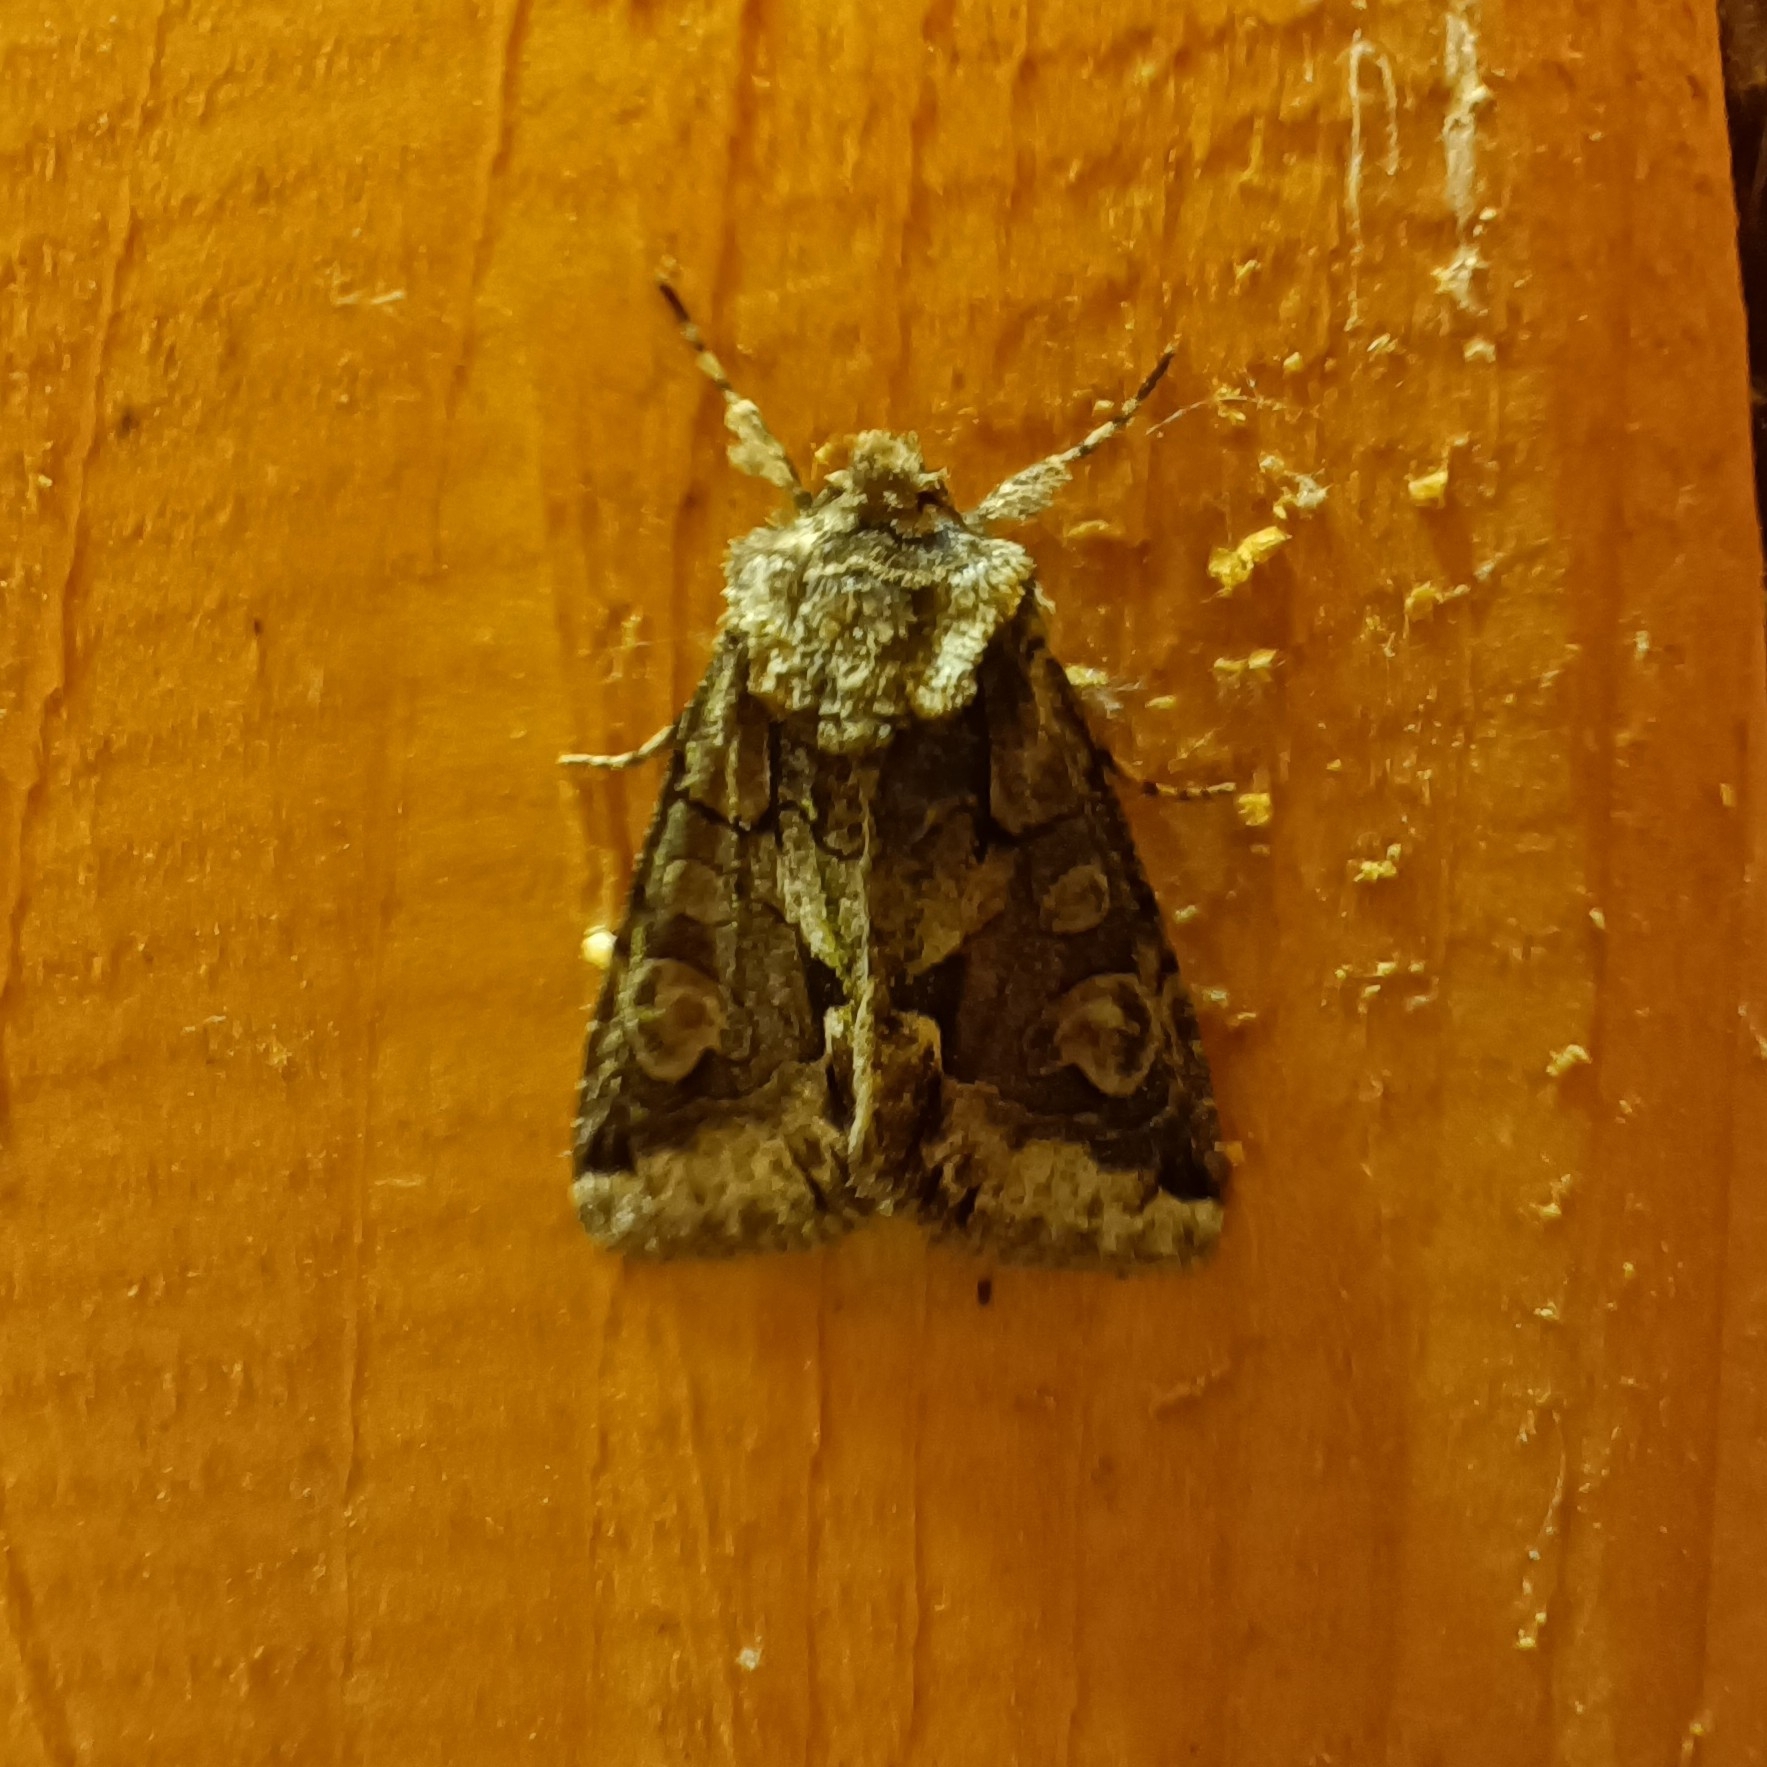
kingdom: Animalia
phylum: Arthropoda
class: Insecta
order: Lepidoptera
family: Noctuidae
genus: Allophyes
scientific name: Allophyes oxyacanthae
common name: Green-brindled crescent
